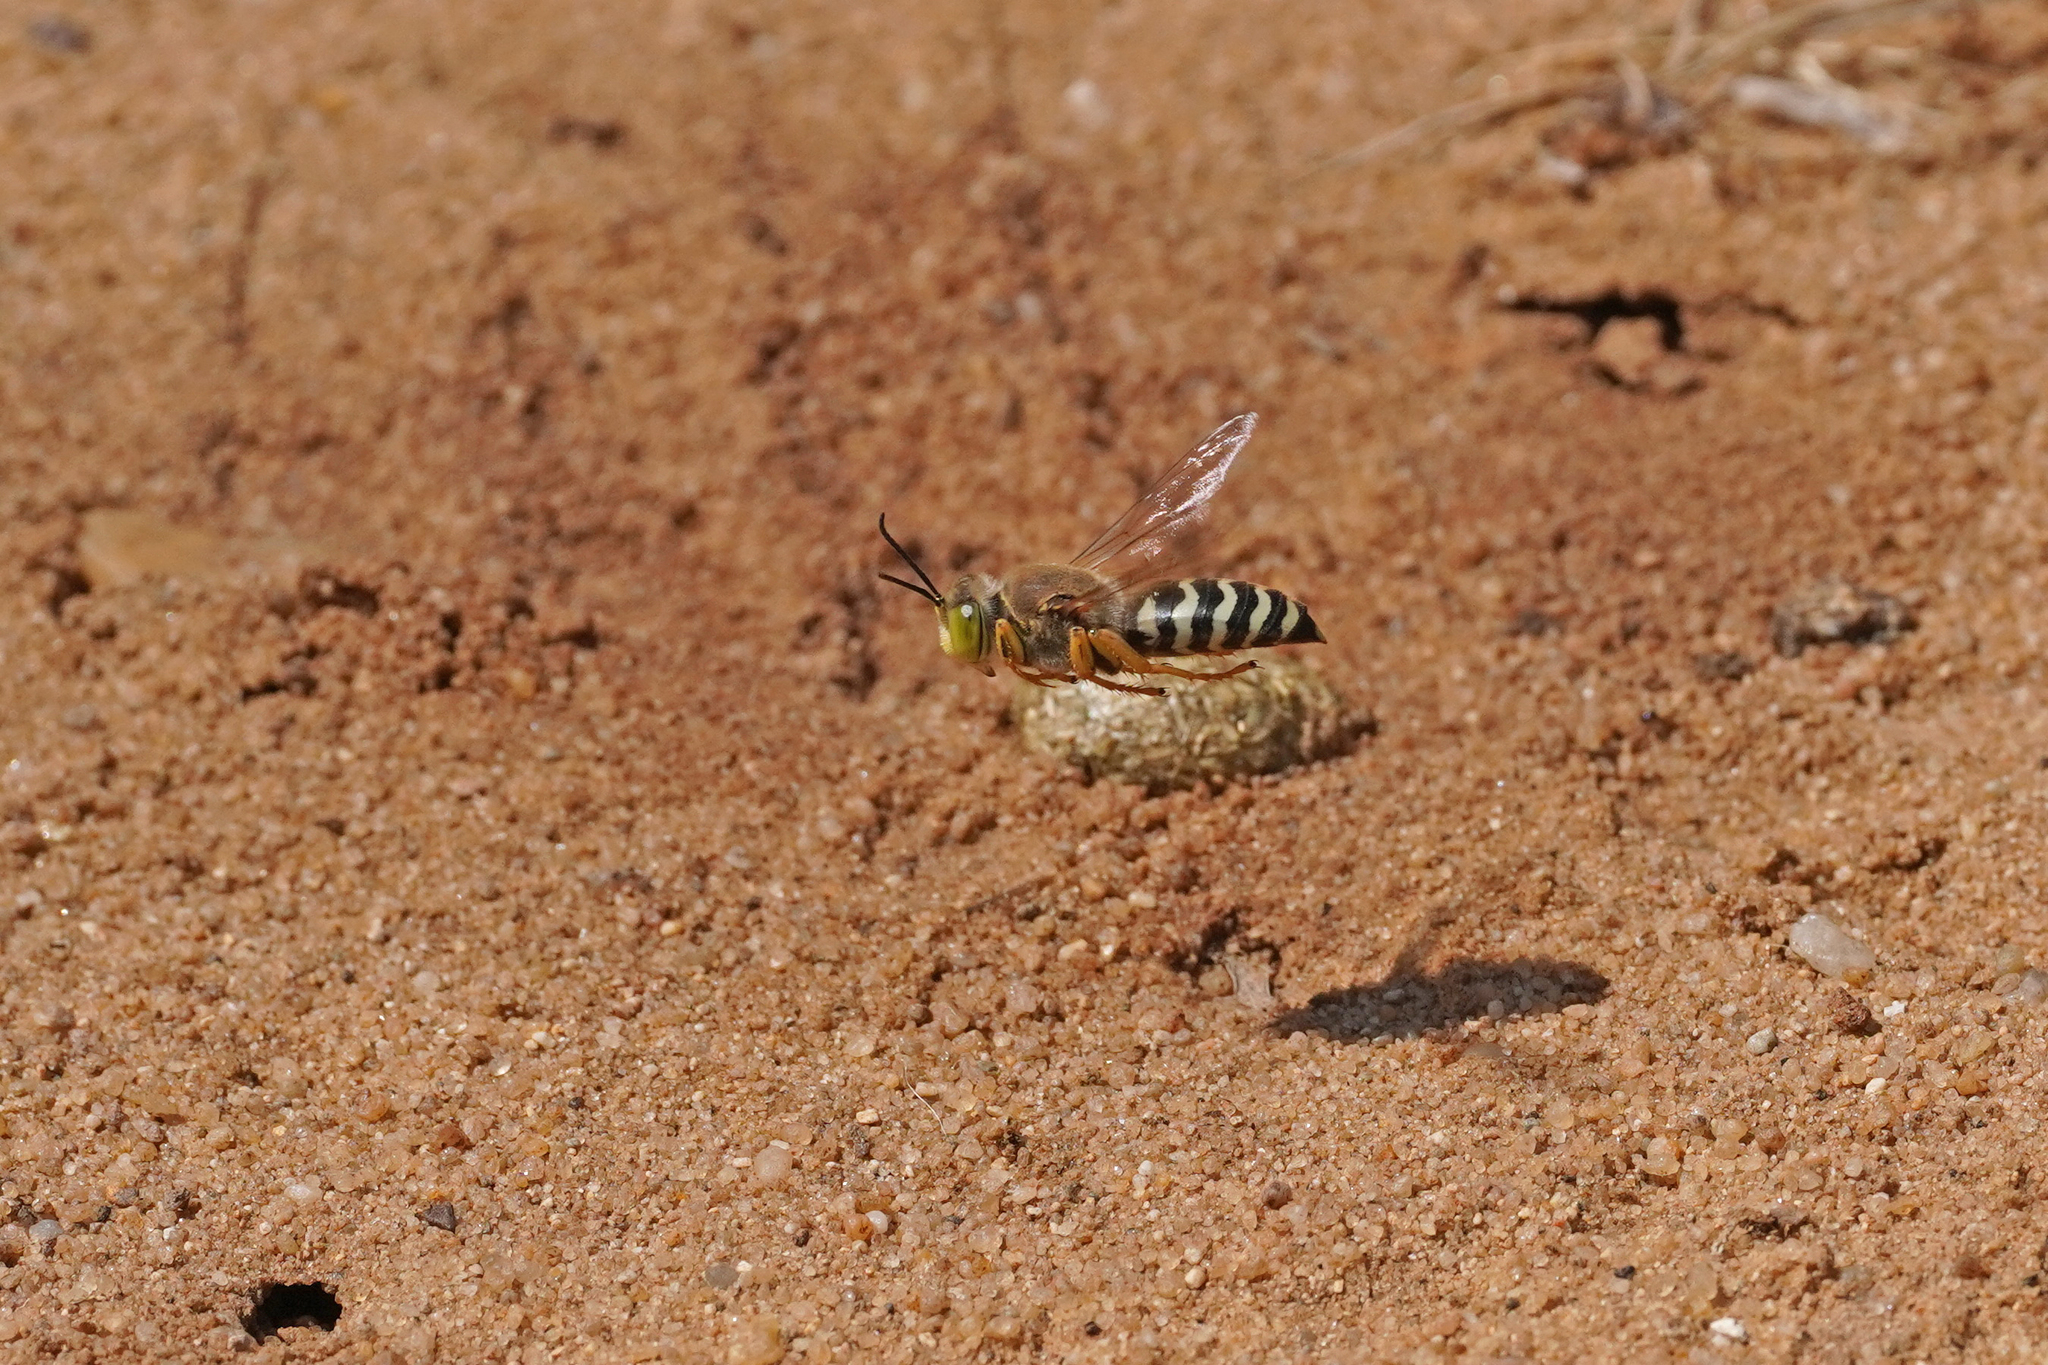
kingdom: Animalia
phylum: Arthropoda
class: Insecta
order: Hymenoptera
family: Crabronidae
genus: Bembix
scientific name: Bembix rostrata
